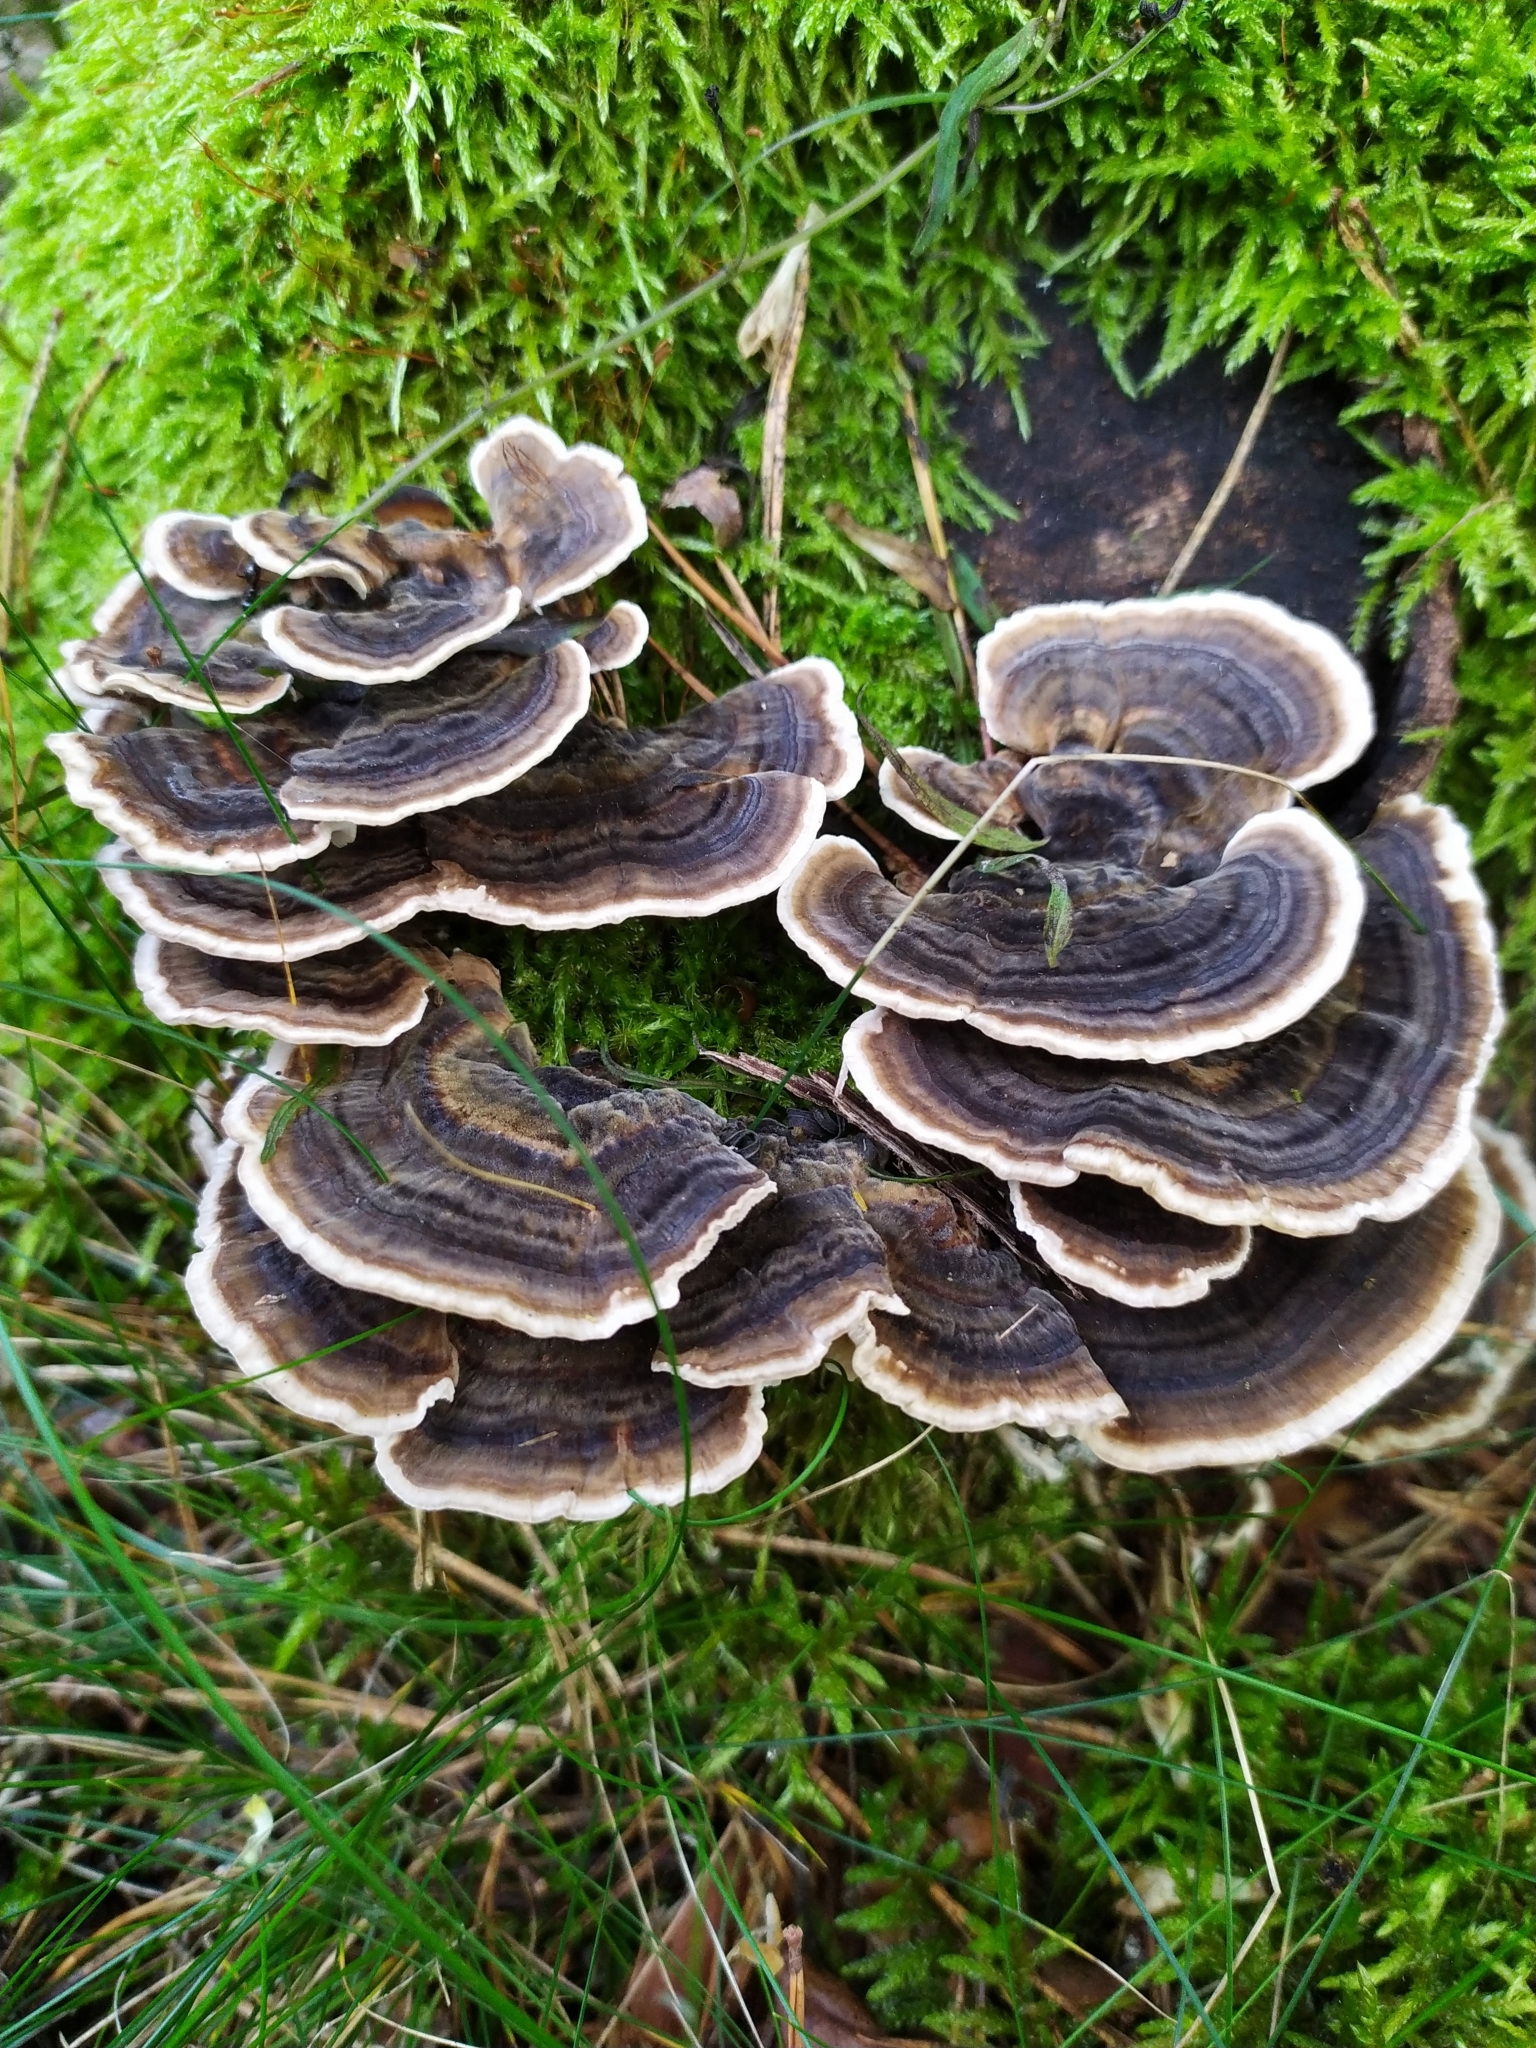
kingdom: Fungi
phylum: Basidiomycota
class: Agaricomycetes
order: Polyporales
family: Polyporaceae
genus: Trametes
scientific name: Trametes versicolor
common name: Turkeytail
